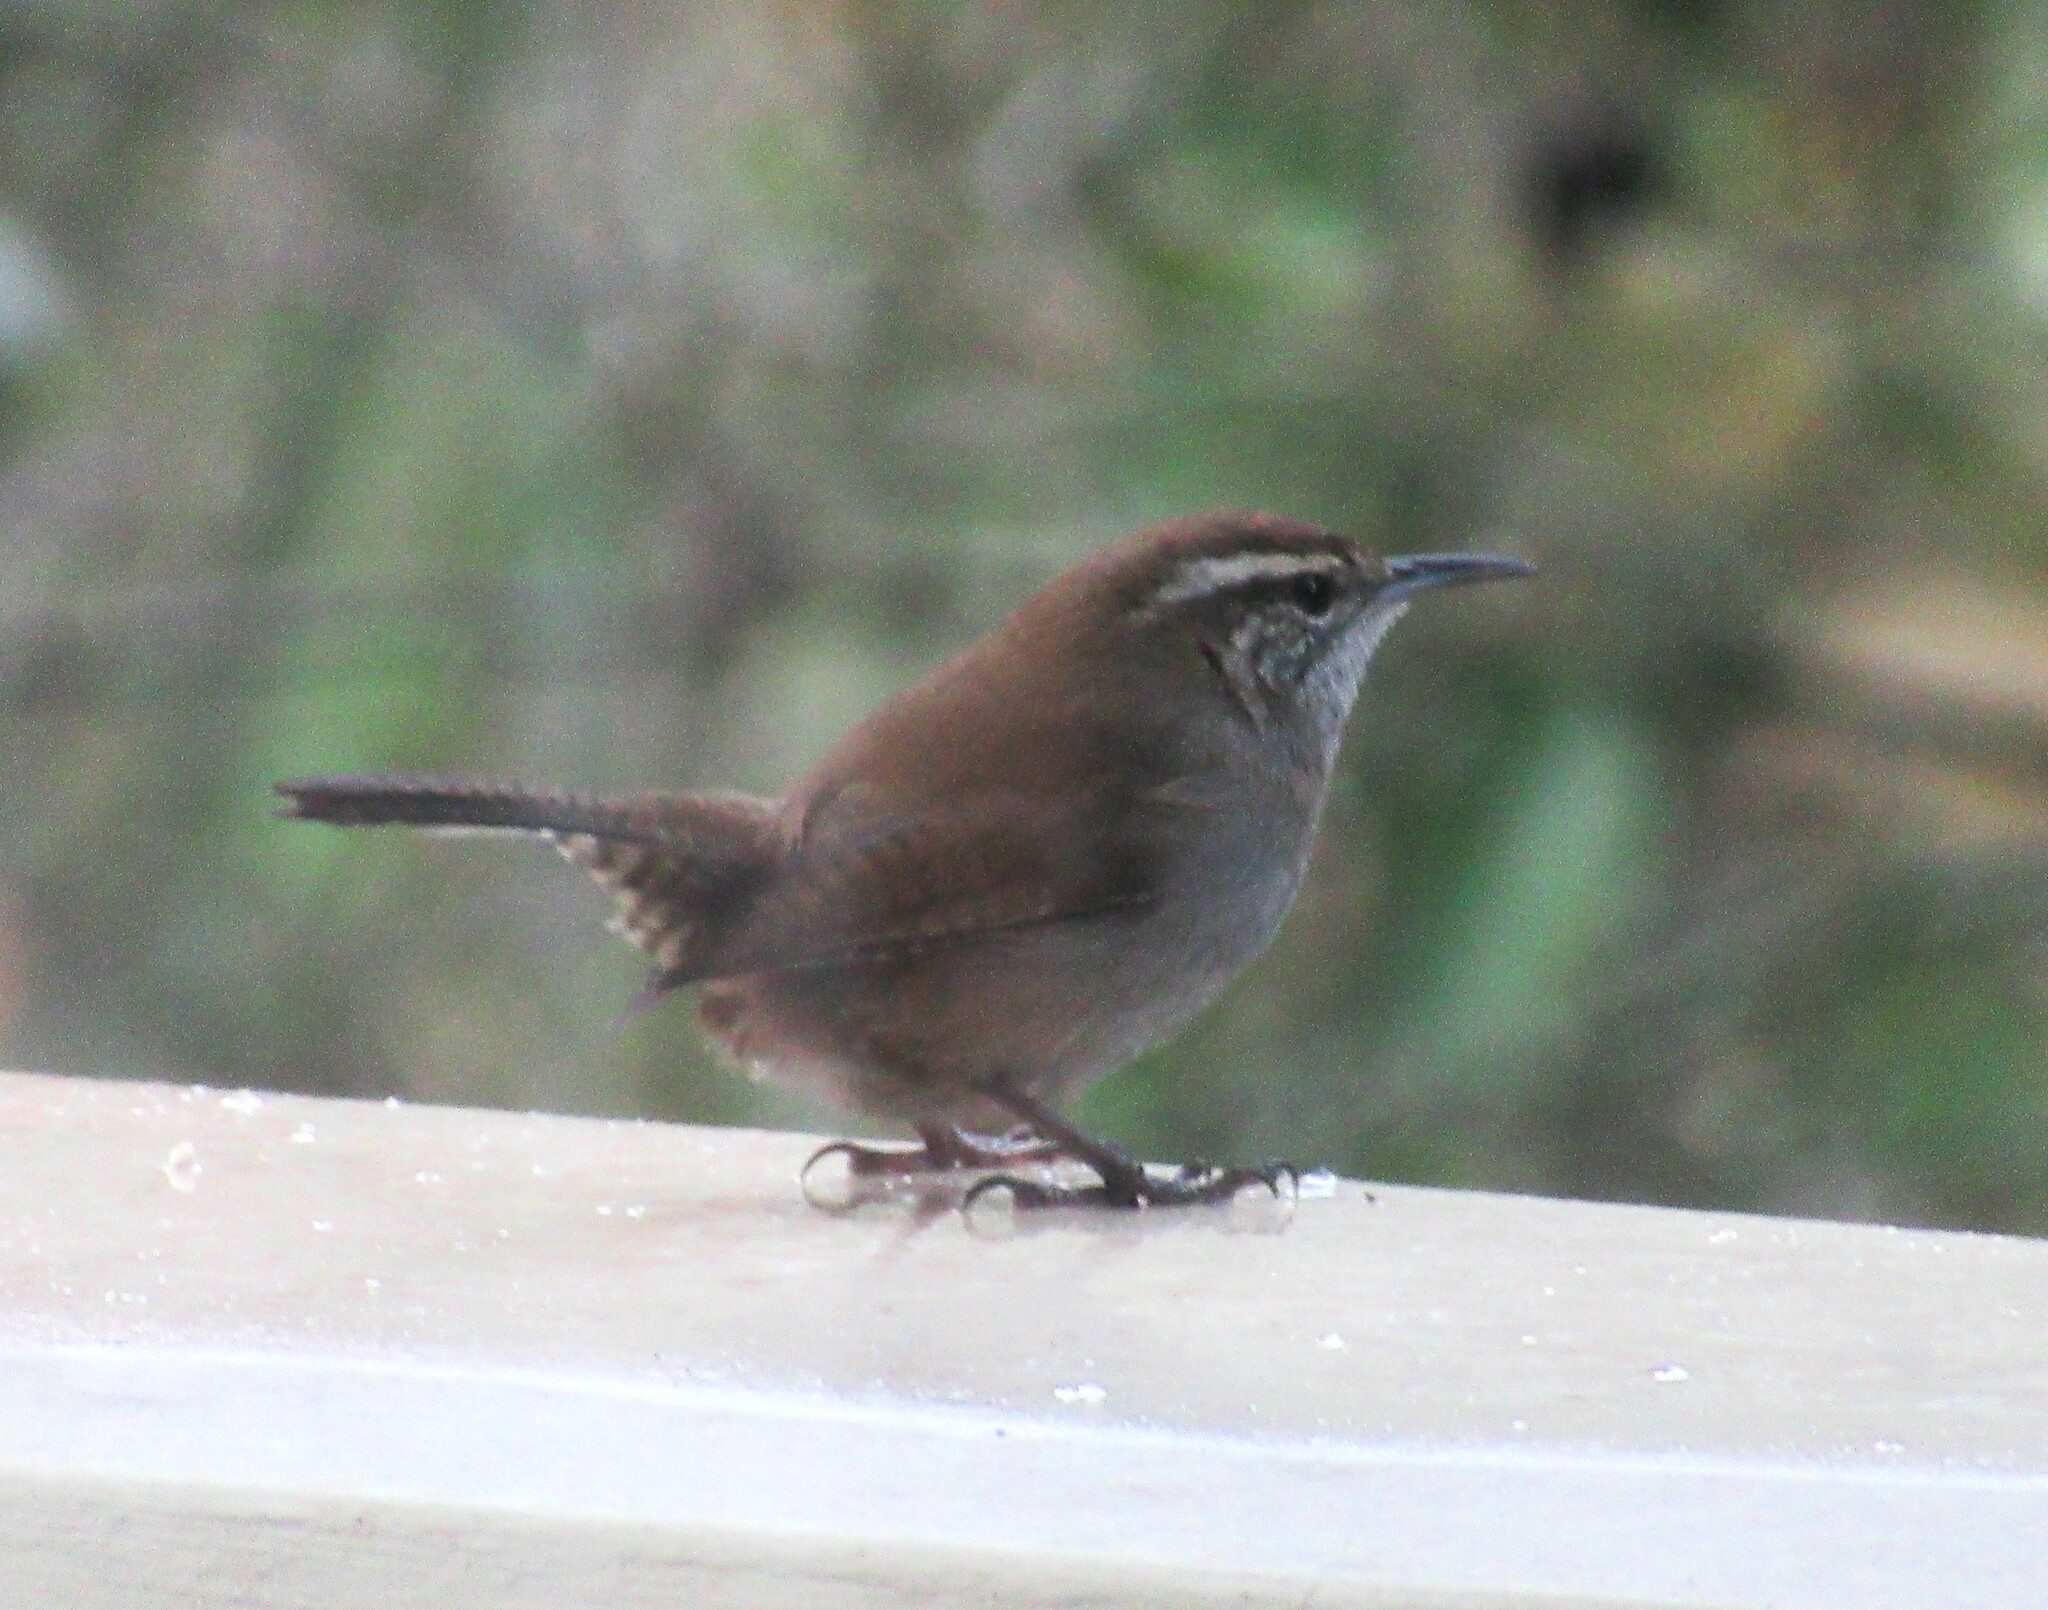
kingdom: Animalia
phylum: Chordata
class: Aves
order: Passeriformes
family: Troglodytidae
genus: Thryomanes
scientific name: Thryomanes bewickii
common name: Bewick's wren
